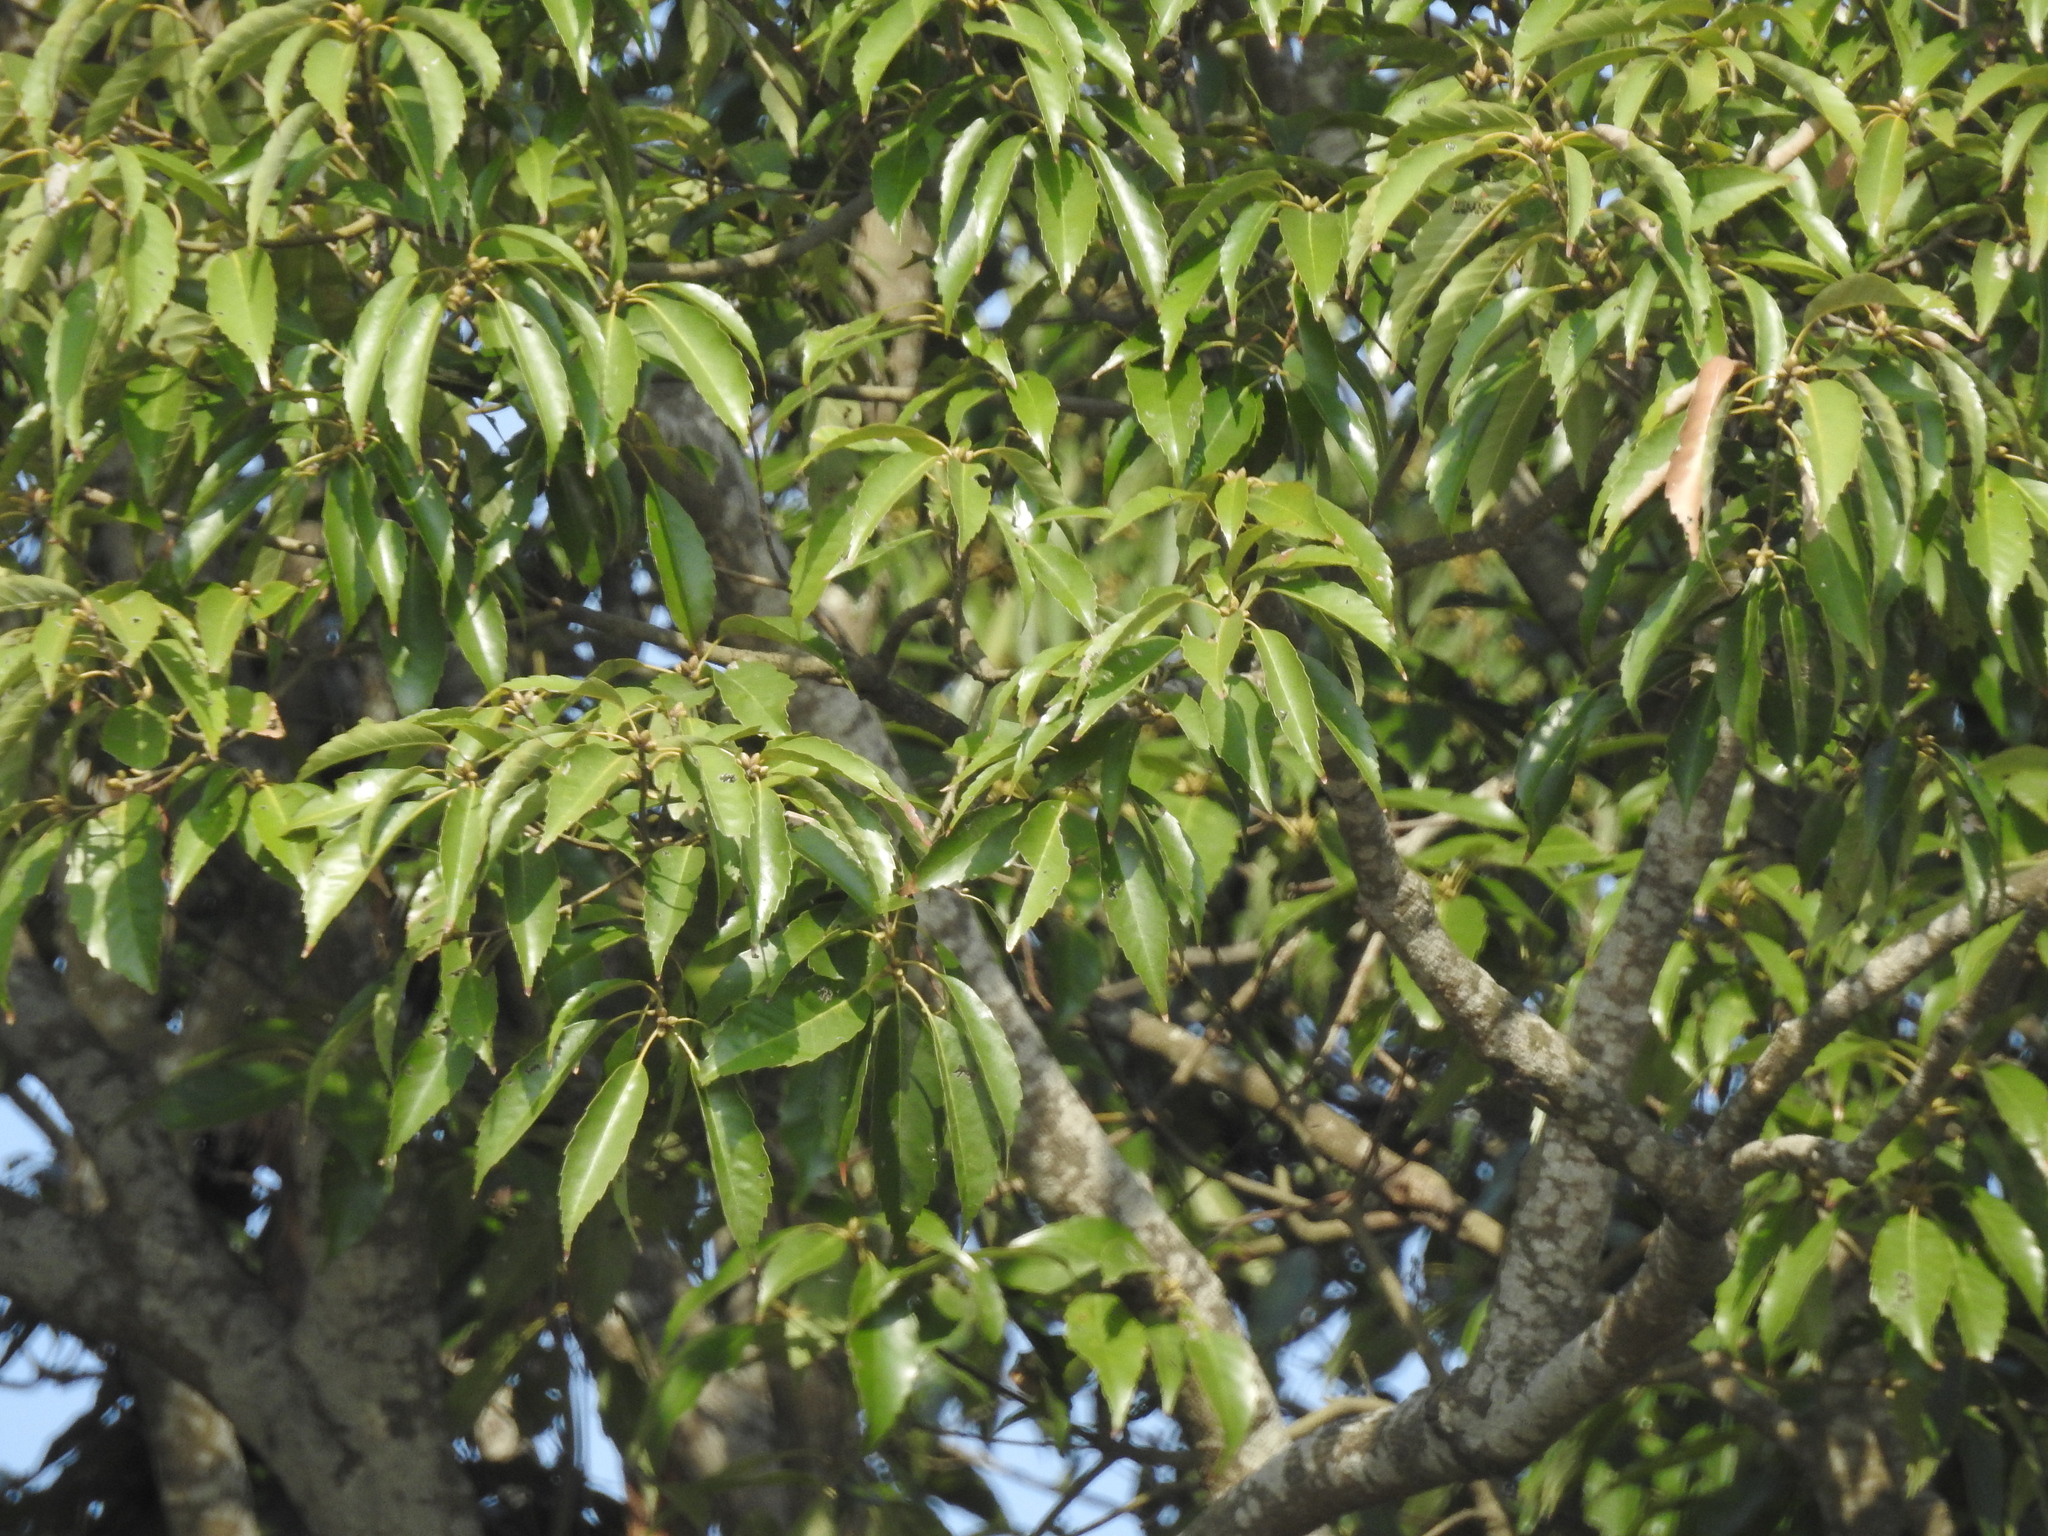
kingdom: Plantae
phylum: Tracheophyta
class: Magnoliopsida
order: Fagales
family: Fagaceae
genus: Quercus
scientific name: Quercus glauca
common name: Ring-cup oak
